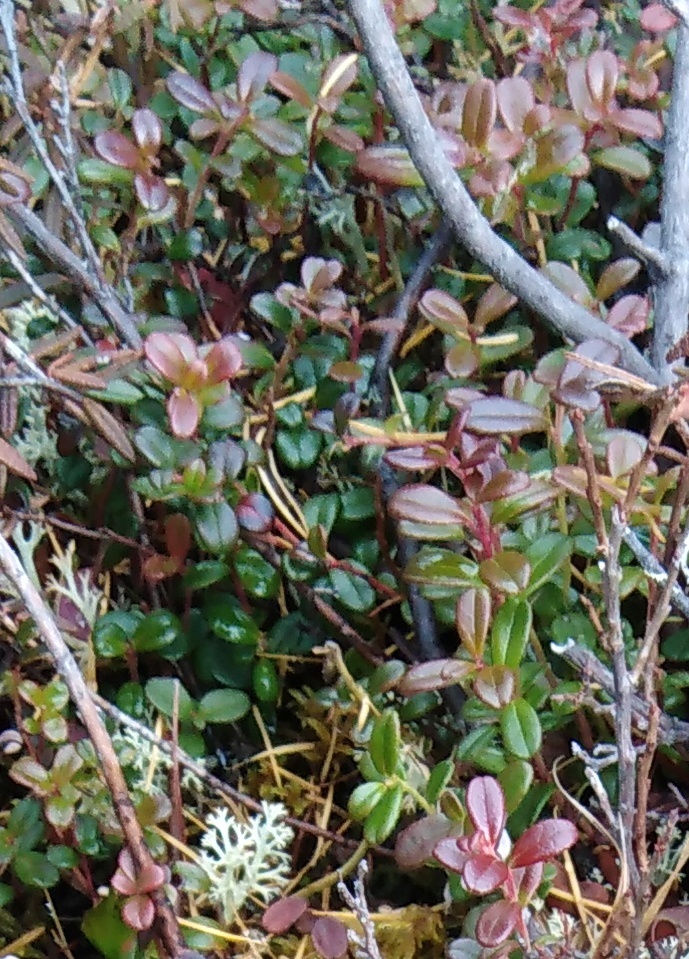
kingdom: Plantae
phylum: Tracheophyta
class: Magnoliopsida
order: Ericales
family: Ericaceae
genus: Vaccinium
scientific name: Vaccinium vitis-idaea
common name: Cowberry
